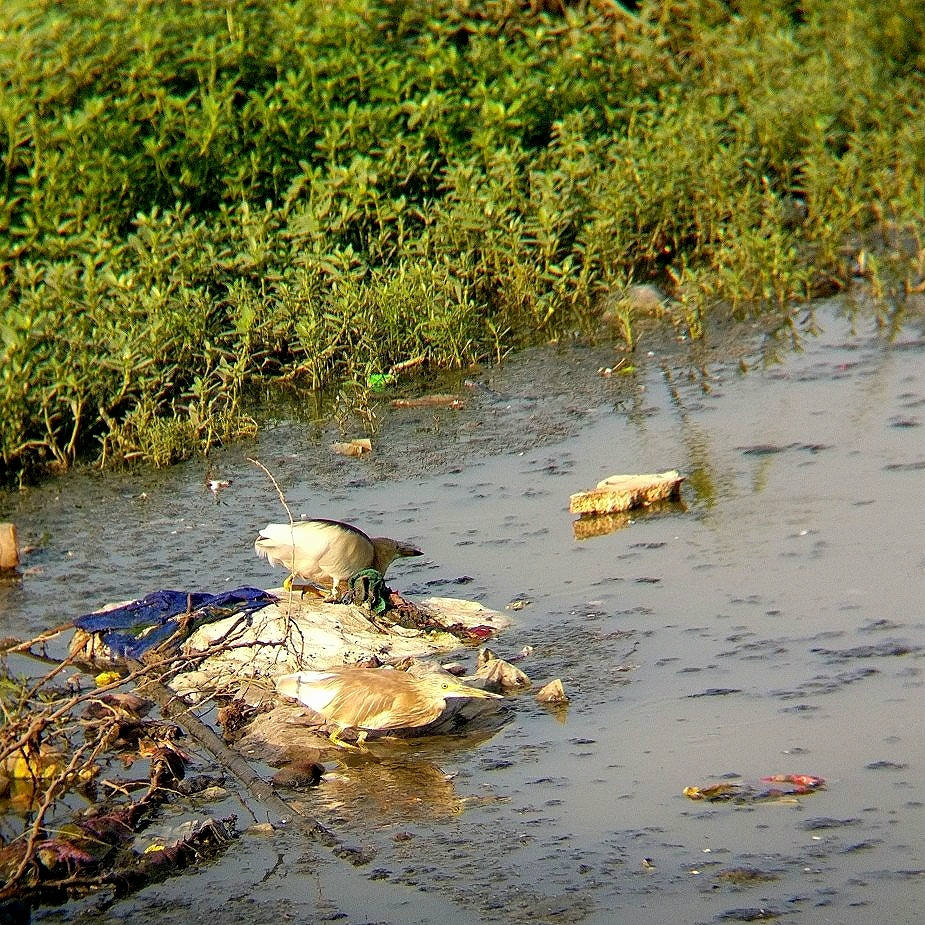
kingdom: Animalia
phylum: Chordata
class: Aves
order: Pelecaniformes
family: Ardeidae
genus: Ardeola
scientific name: Ardeola grayii
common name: Indian pond heron
